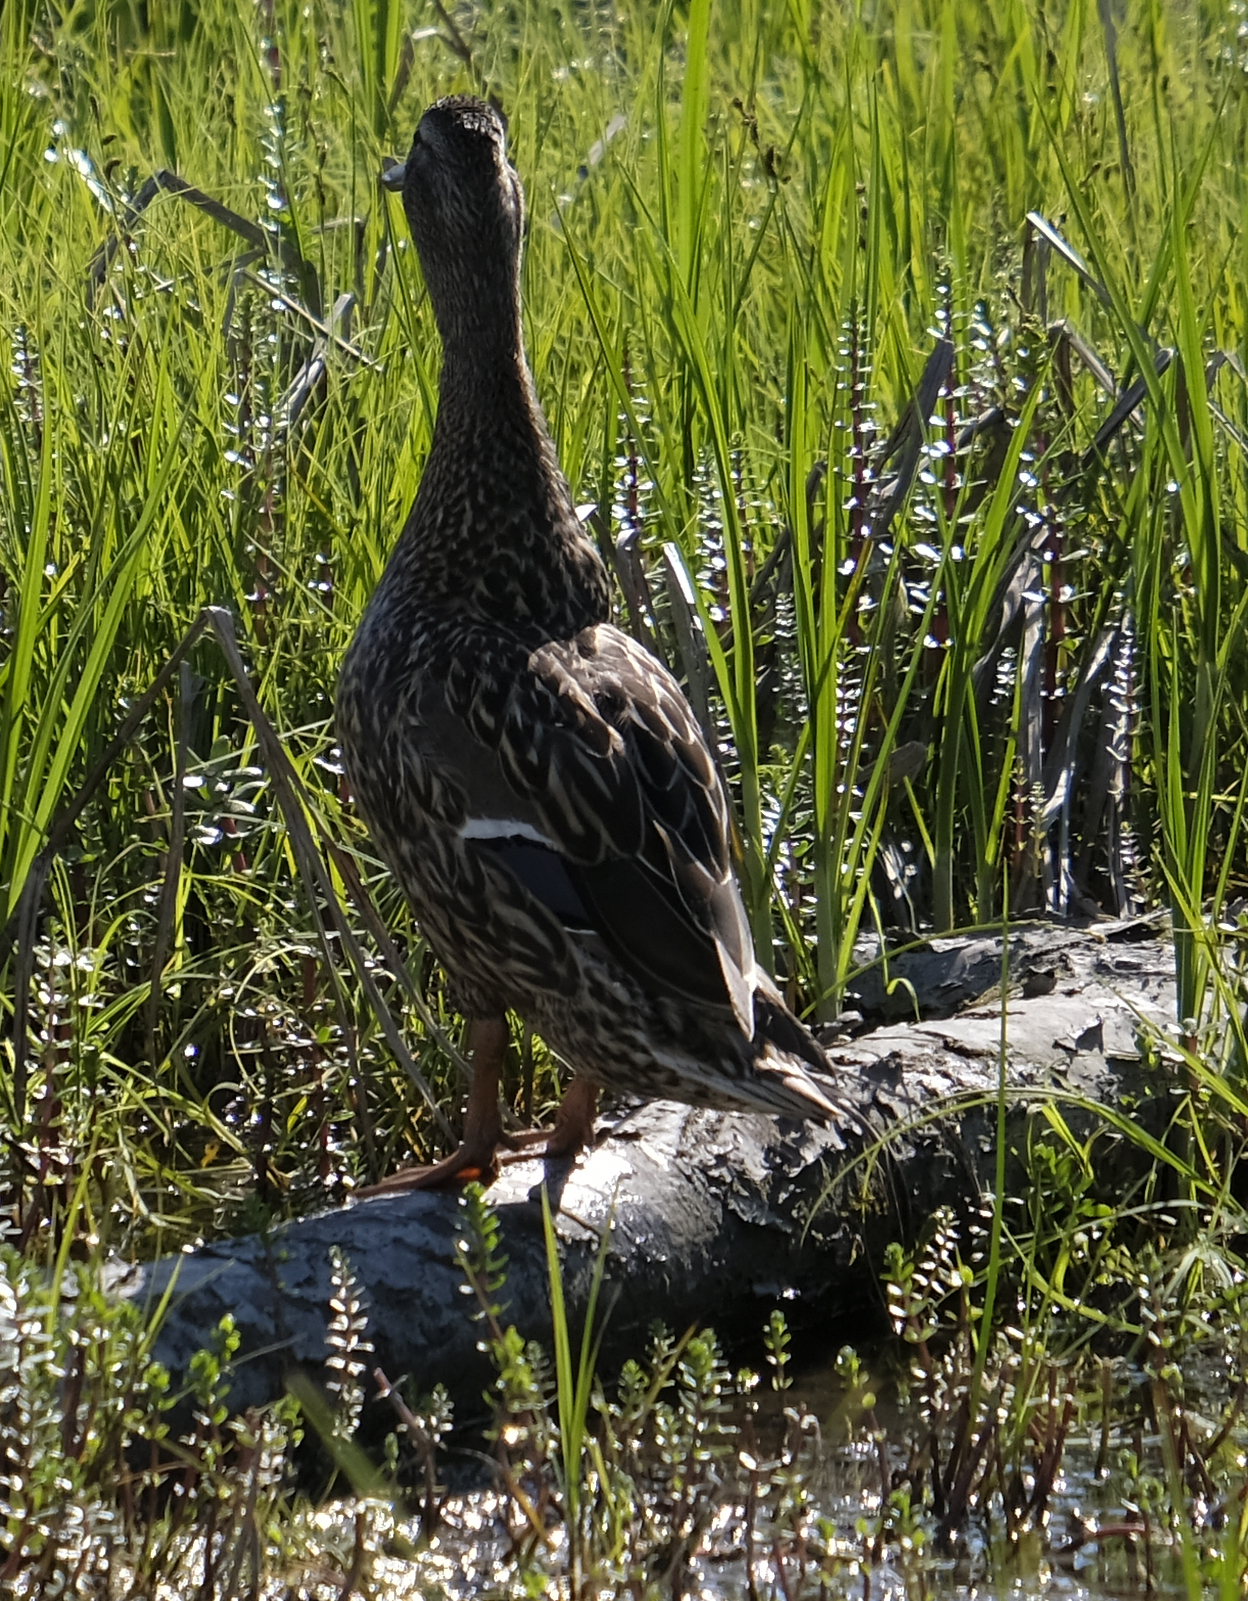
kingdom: Animalia
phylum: Chordata
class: Aves
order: Anseriformes
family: Anatidae
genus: Anas
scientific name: Anas platyrhynchos
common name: Mallard
